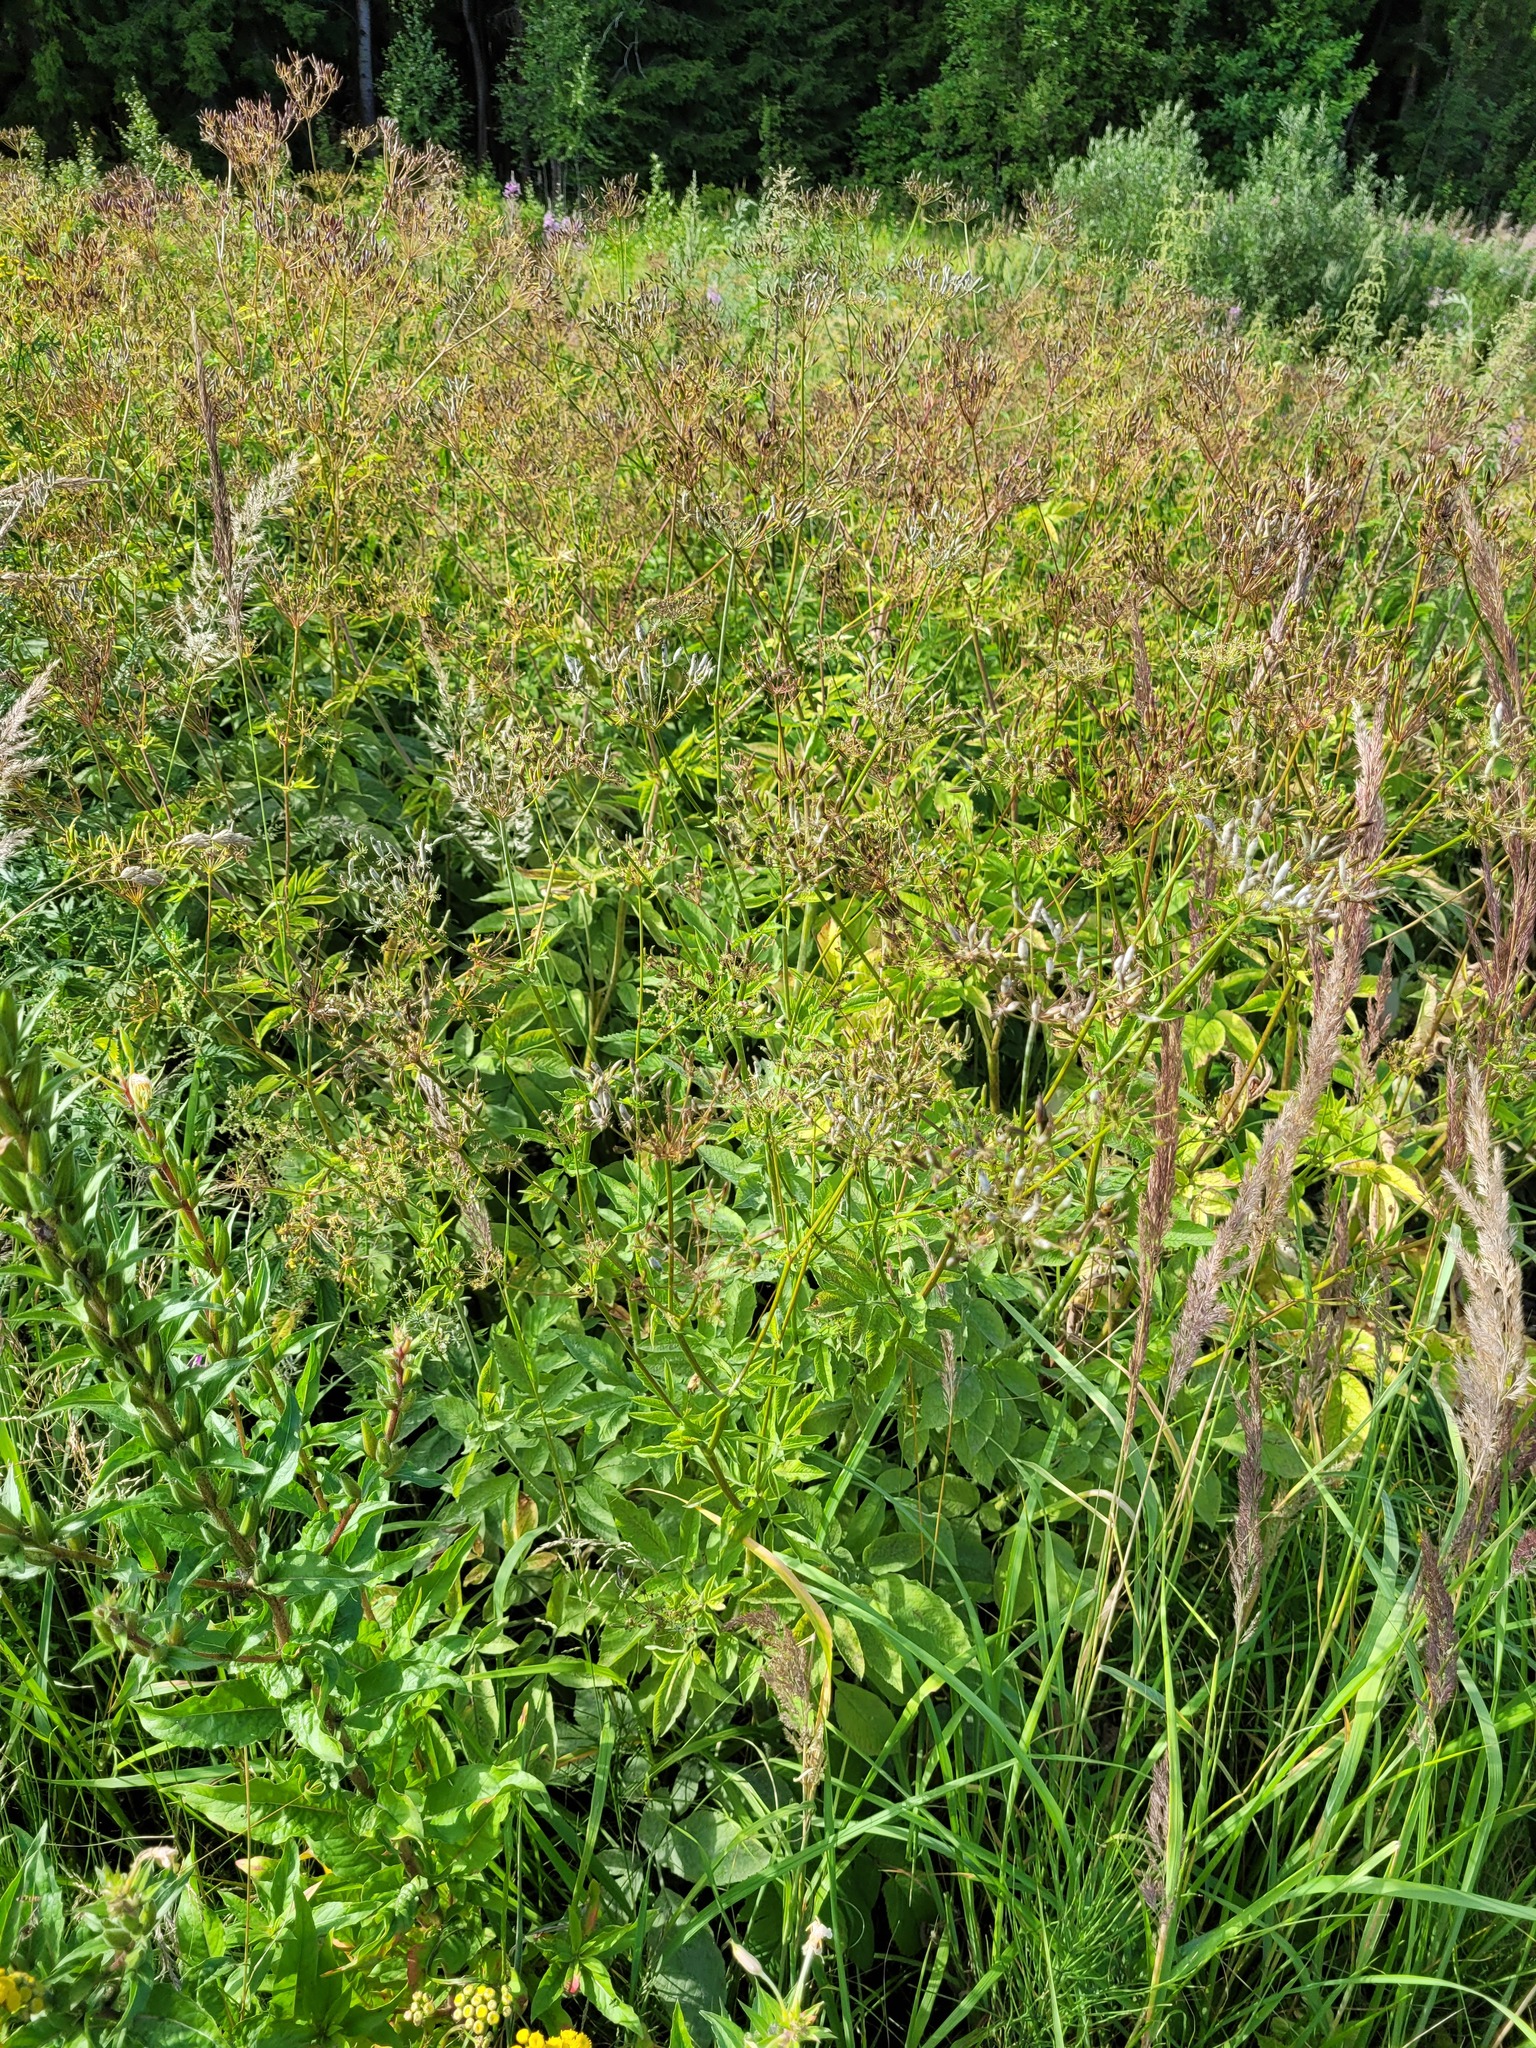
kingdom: Plantae
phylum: Tracheophyta
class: Magnoliopsida
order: Apiales
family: Apiaceae
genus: Chaerophyllum
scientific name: Chaerophyllum aromaticum
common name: Broadleaf chervil
